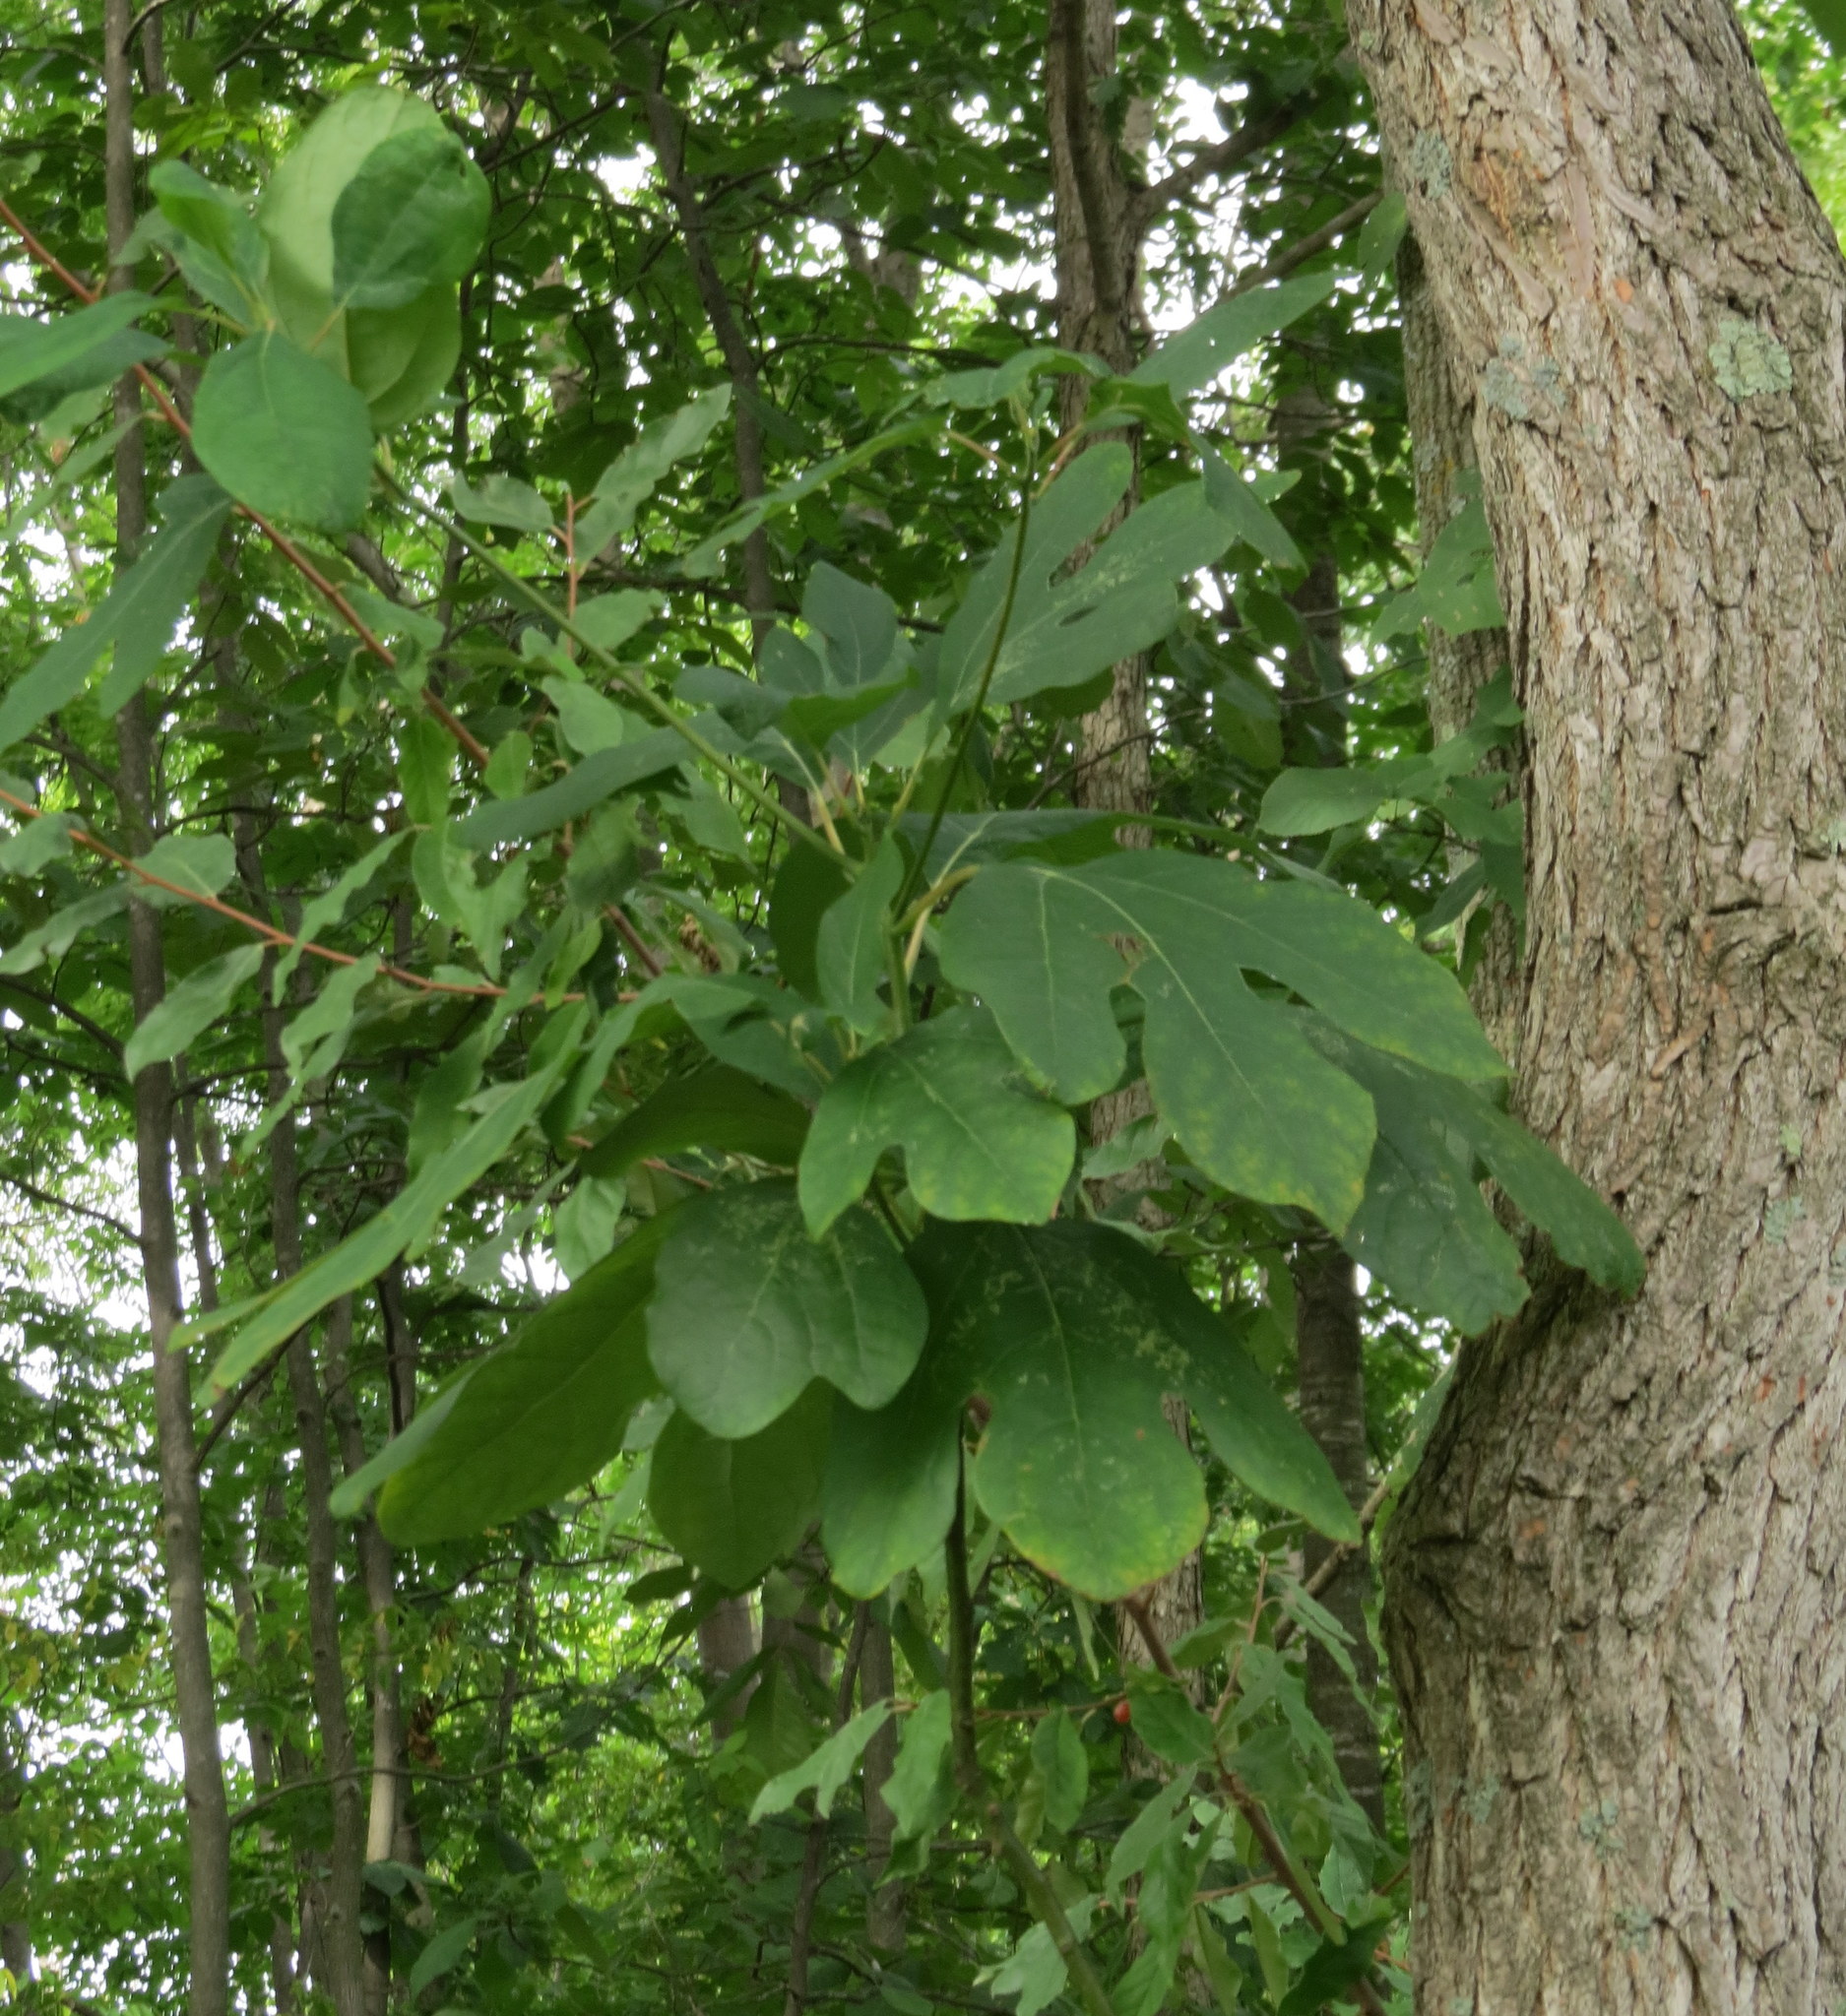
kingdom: Plantae
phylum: Tracheophyta
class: Magnoliopsida
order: Laurales
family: Lauraceae
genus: Sassafras
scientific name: Sassafras albidum
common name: Sassafras
